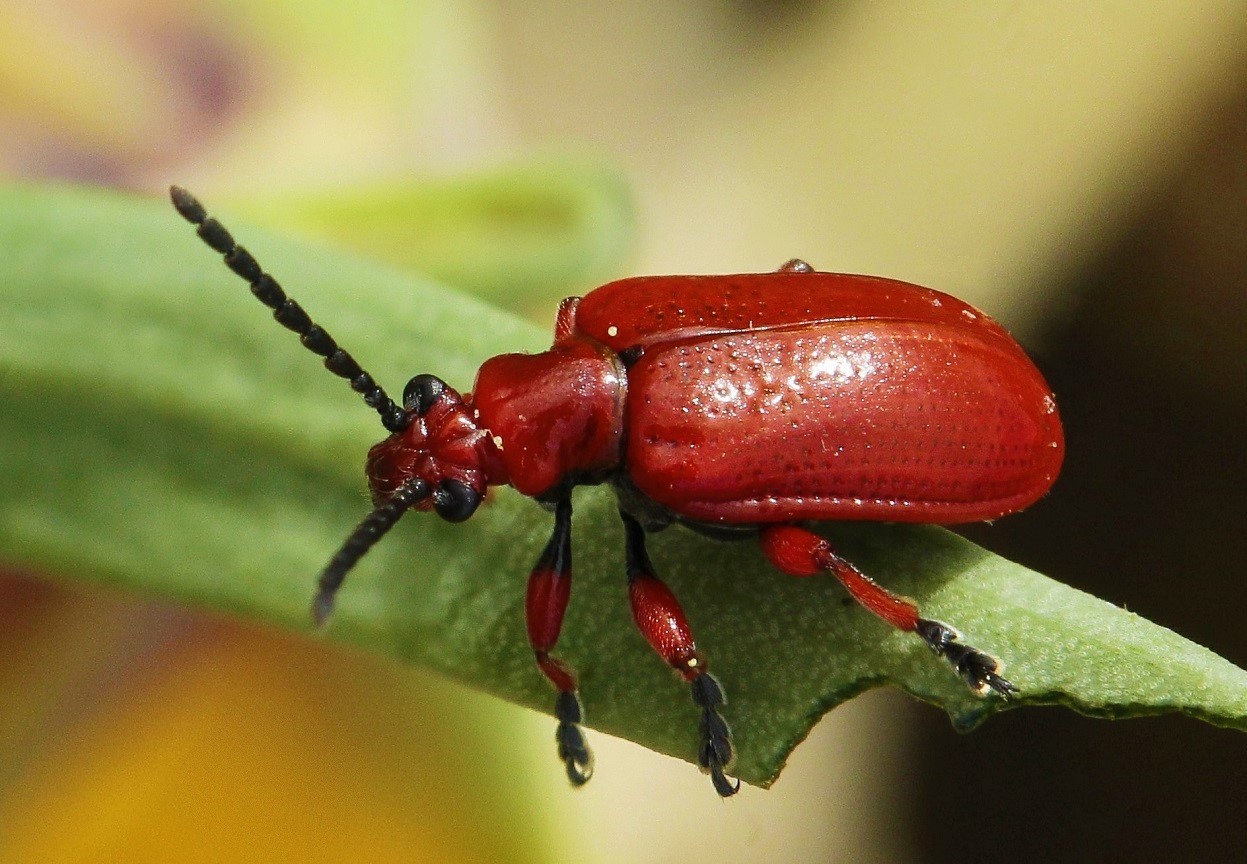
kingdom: Animalia
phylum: Arthropoda
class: Insecta
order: Coleoptera
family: Chrysomelidae
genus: Lilioceris
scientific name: Lilioceris faldermanni
